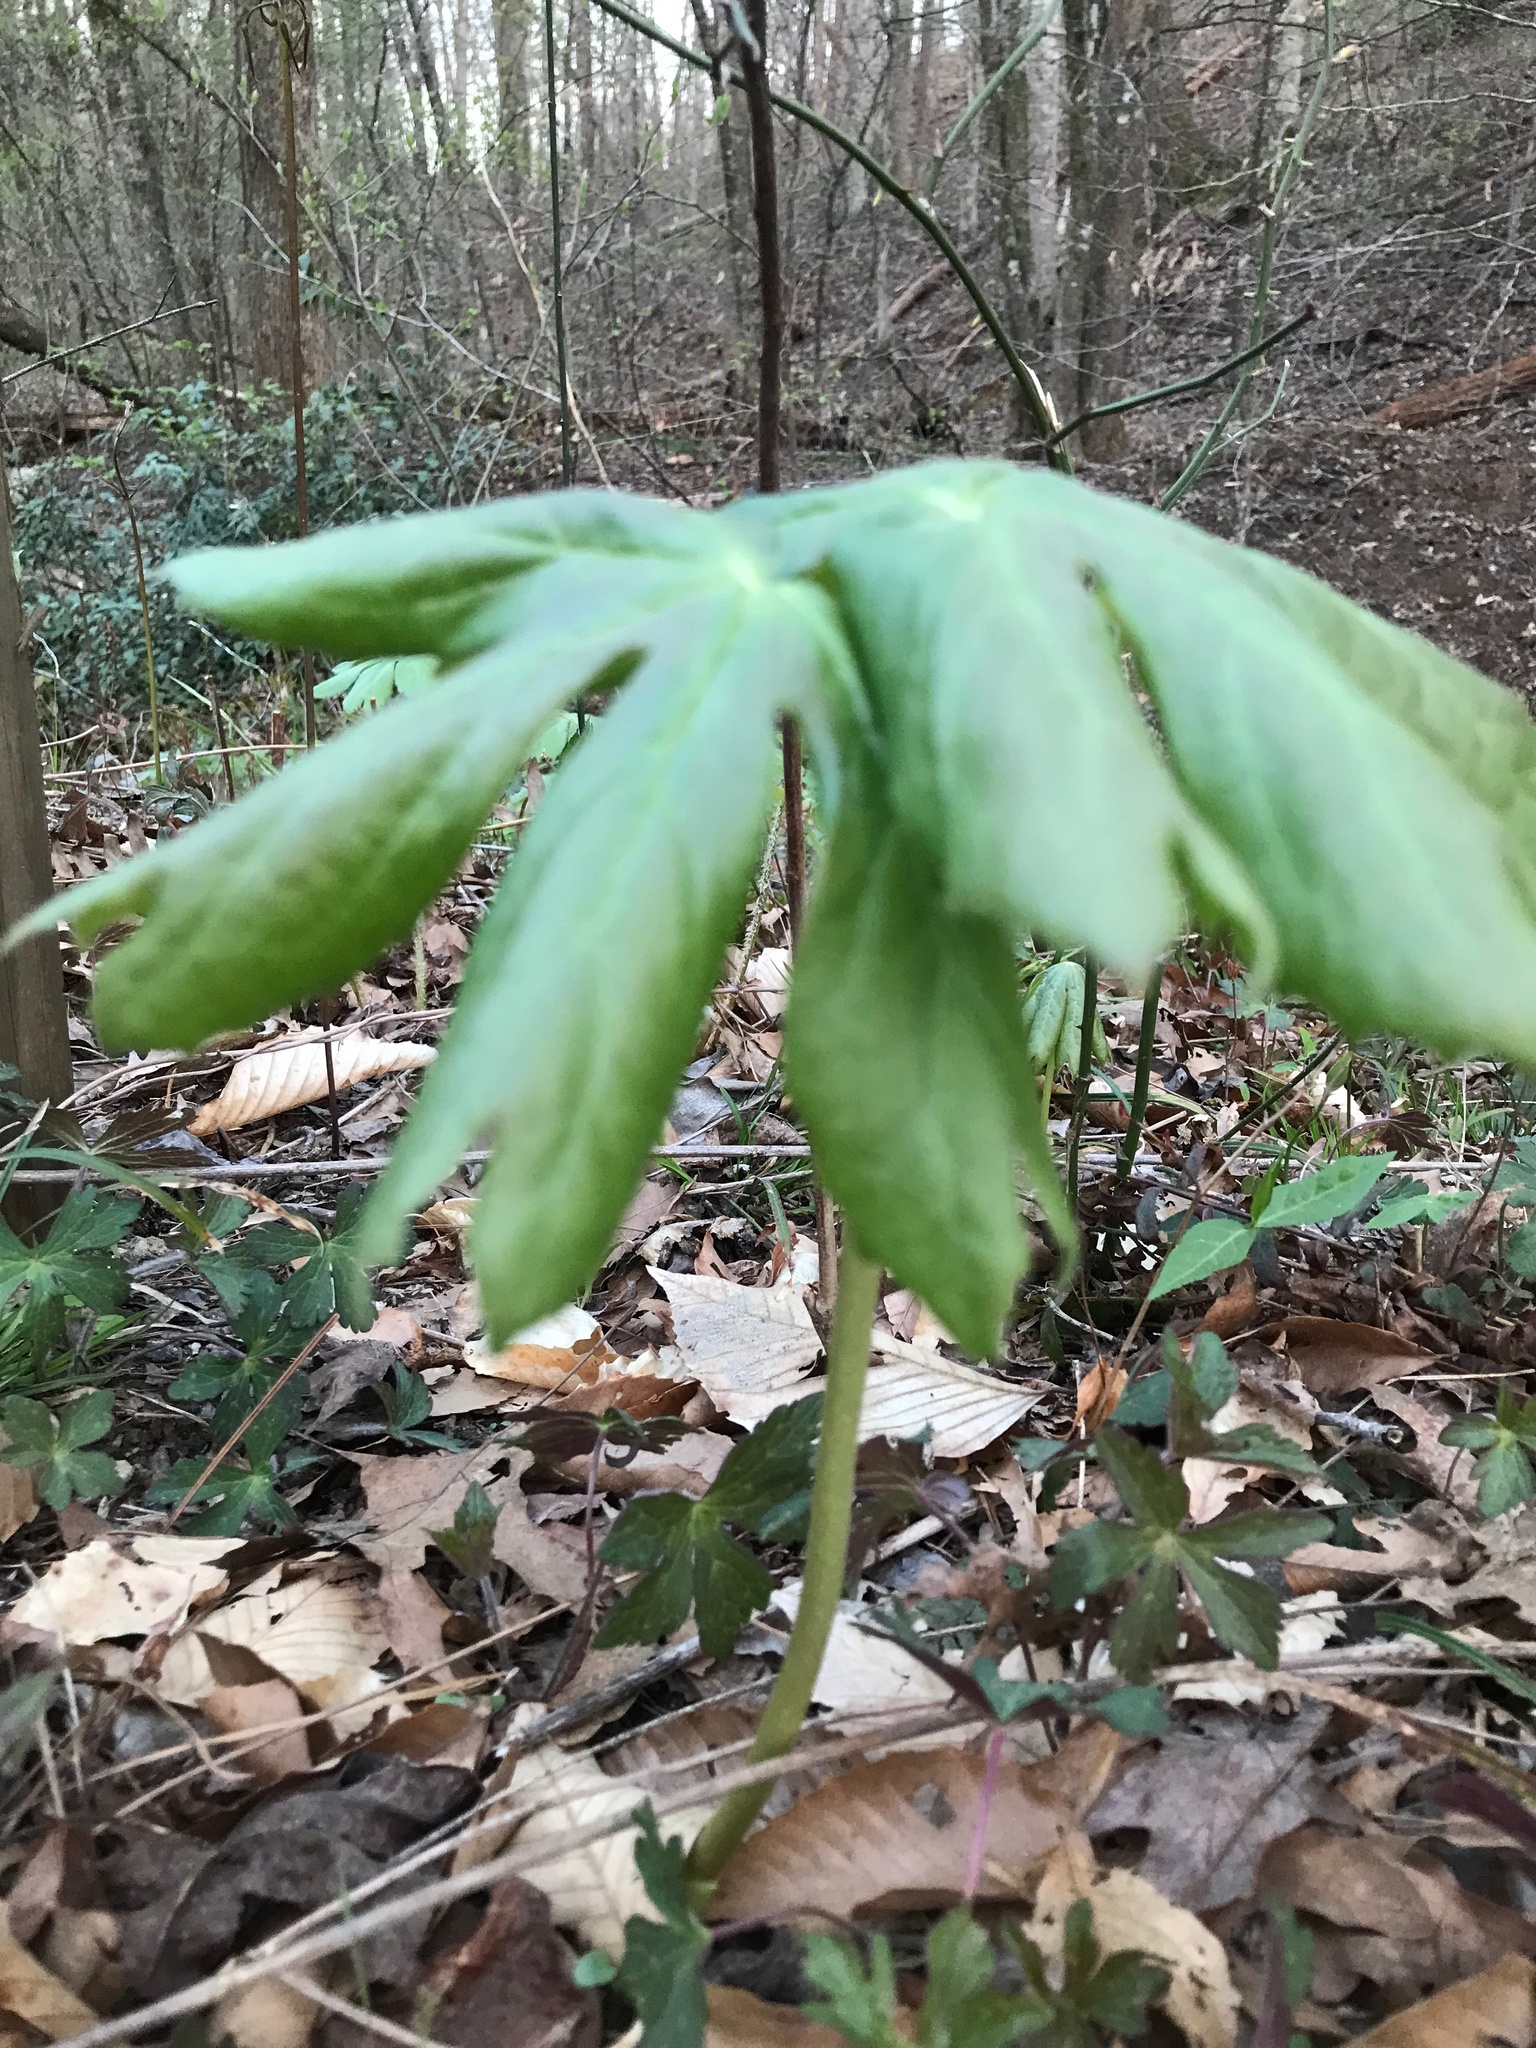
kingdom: Plantae
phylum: Tracheophyta
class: Magnoliopsida
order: Ranunculales
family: Berberidaceae
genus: Podophyllum
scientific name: Podophyllum peltatum
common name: Wild mandrake
